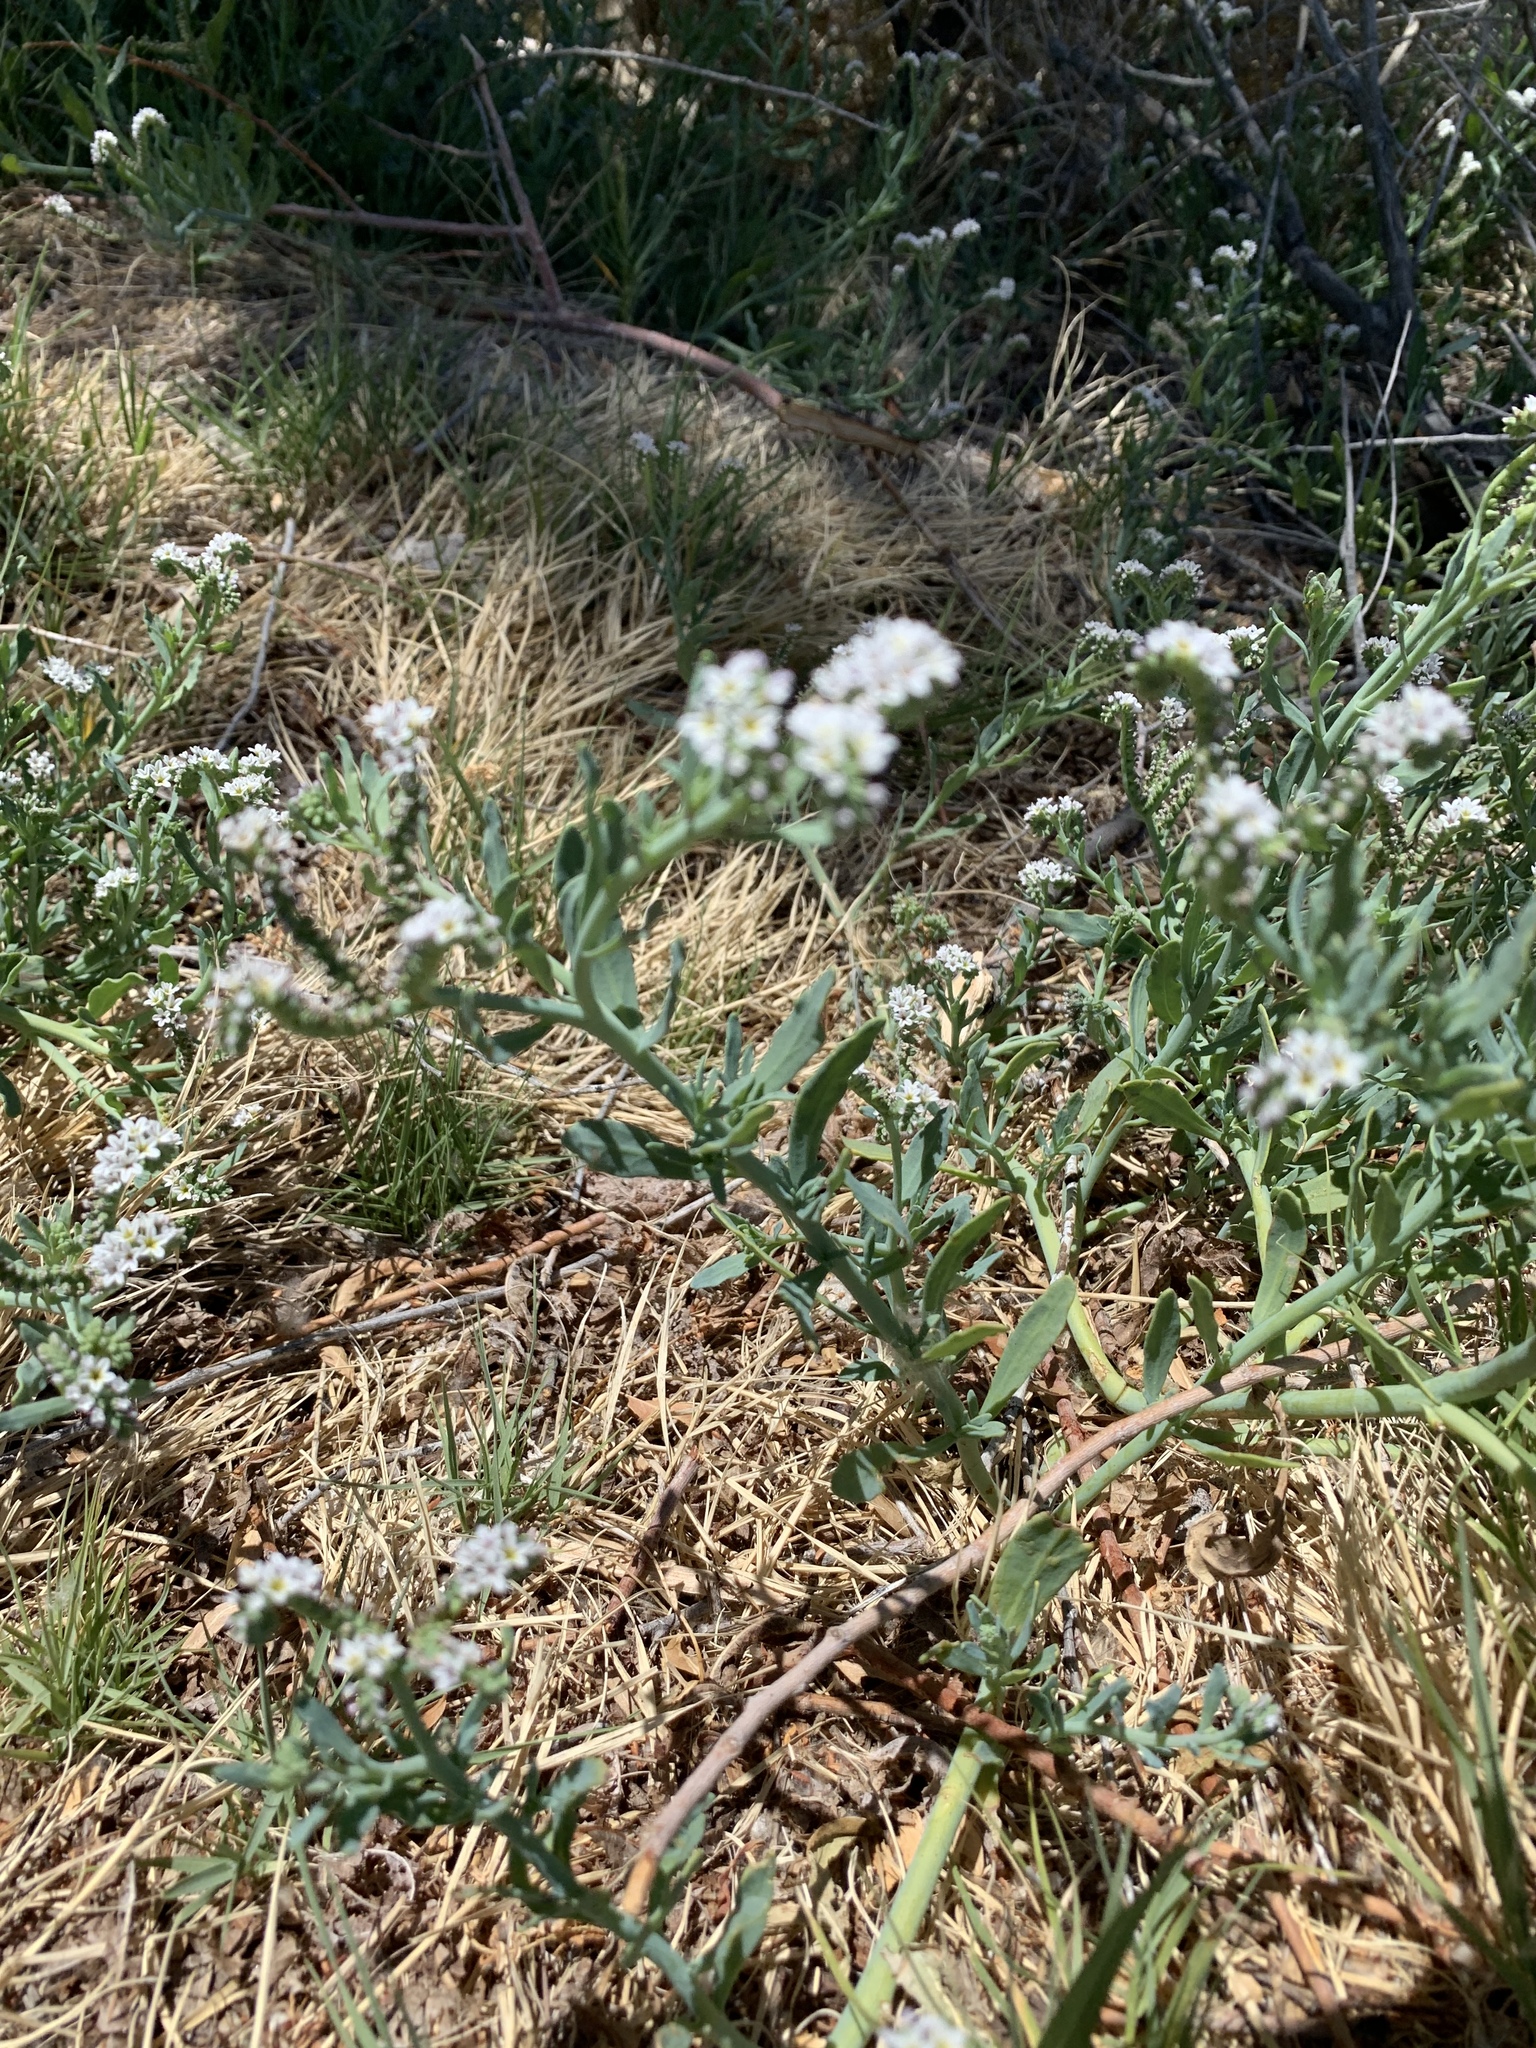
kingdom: Plantae
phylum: Tracheophyta
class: Magnoliopsida
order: Boraginales
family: Heliotropiaceae
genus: Heliotropium
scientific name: Heliotropium curassavicum
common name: Seaside heliotrope
